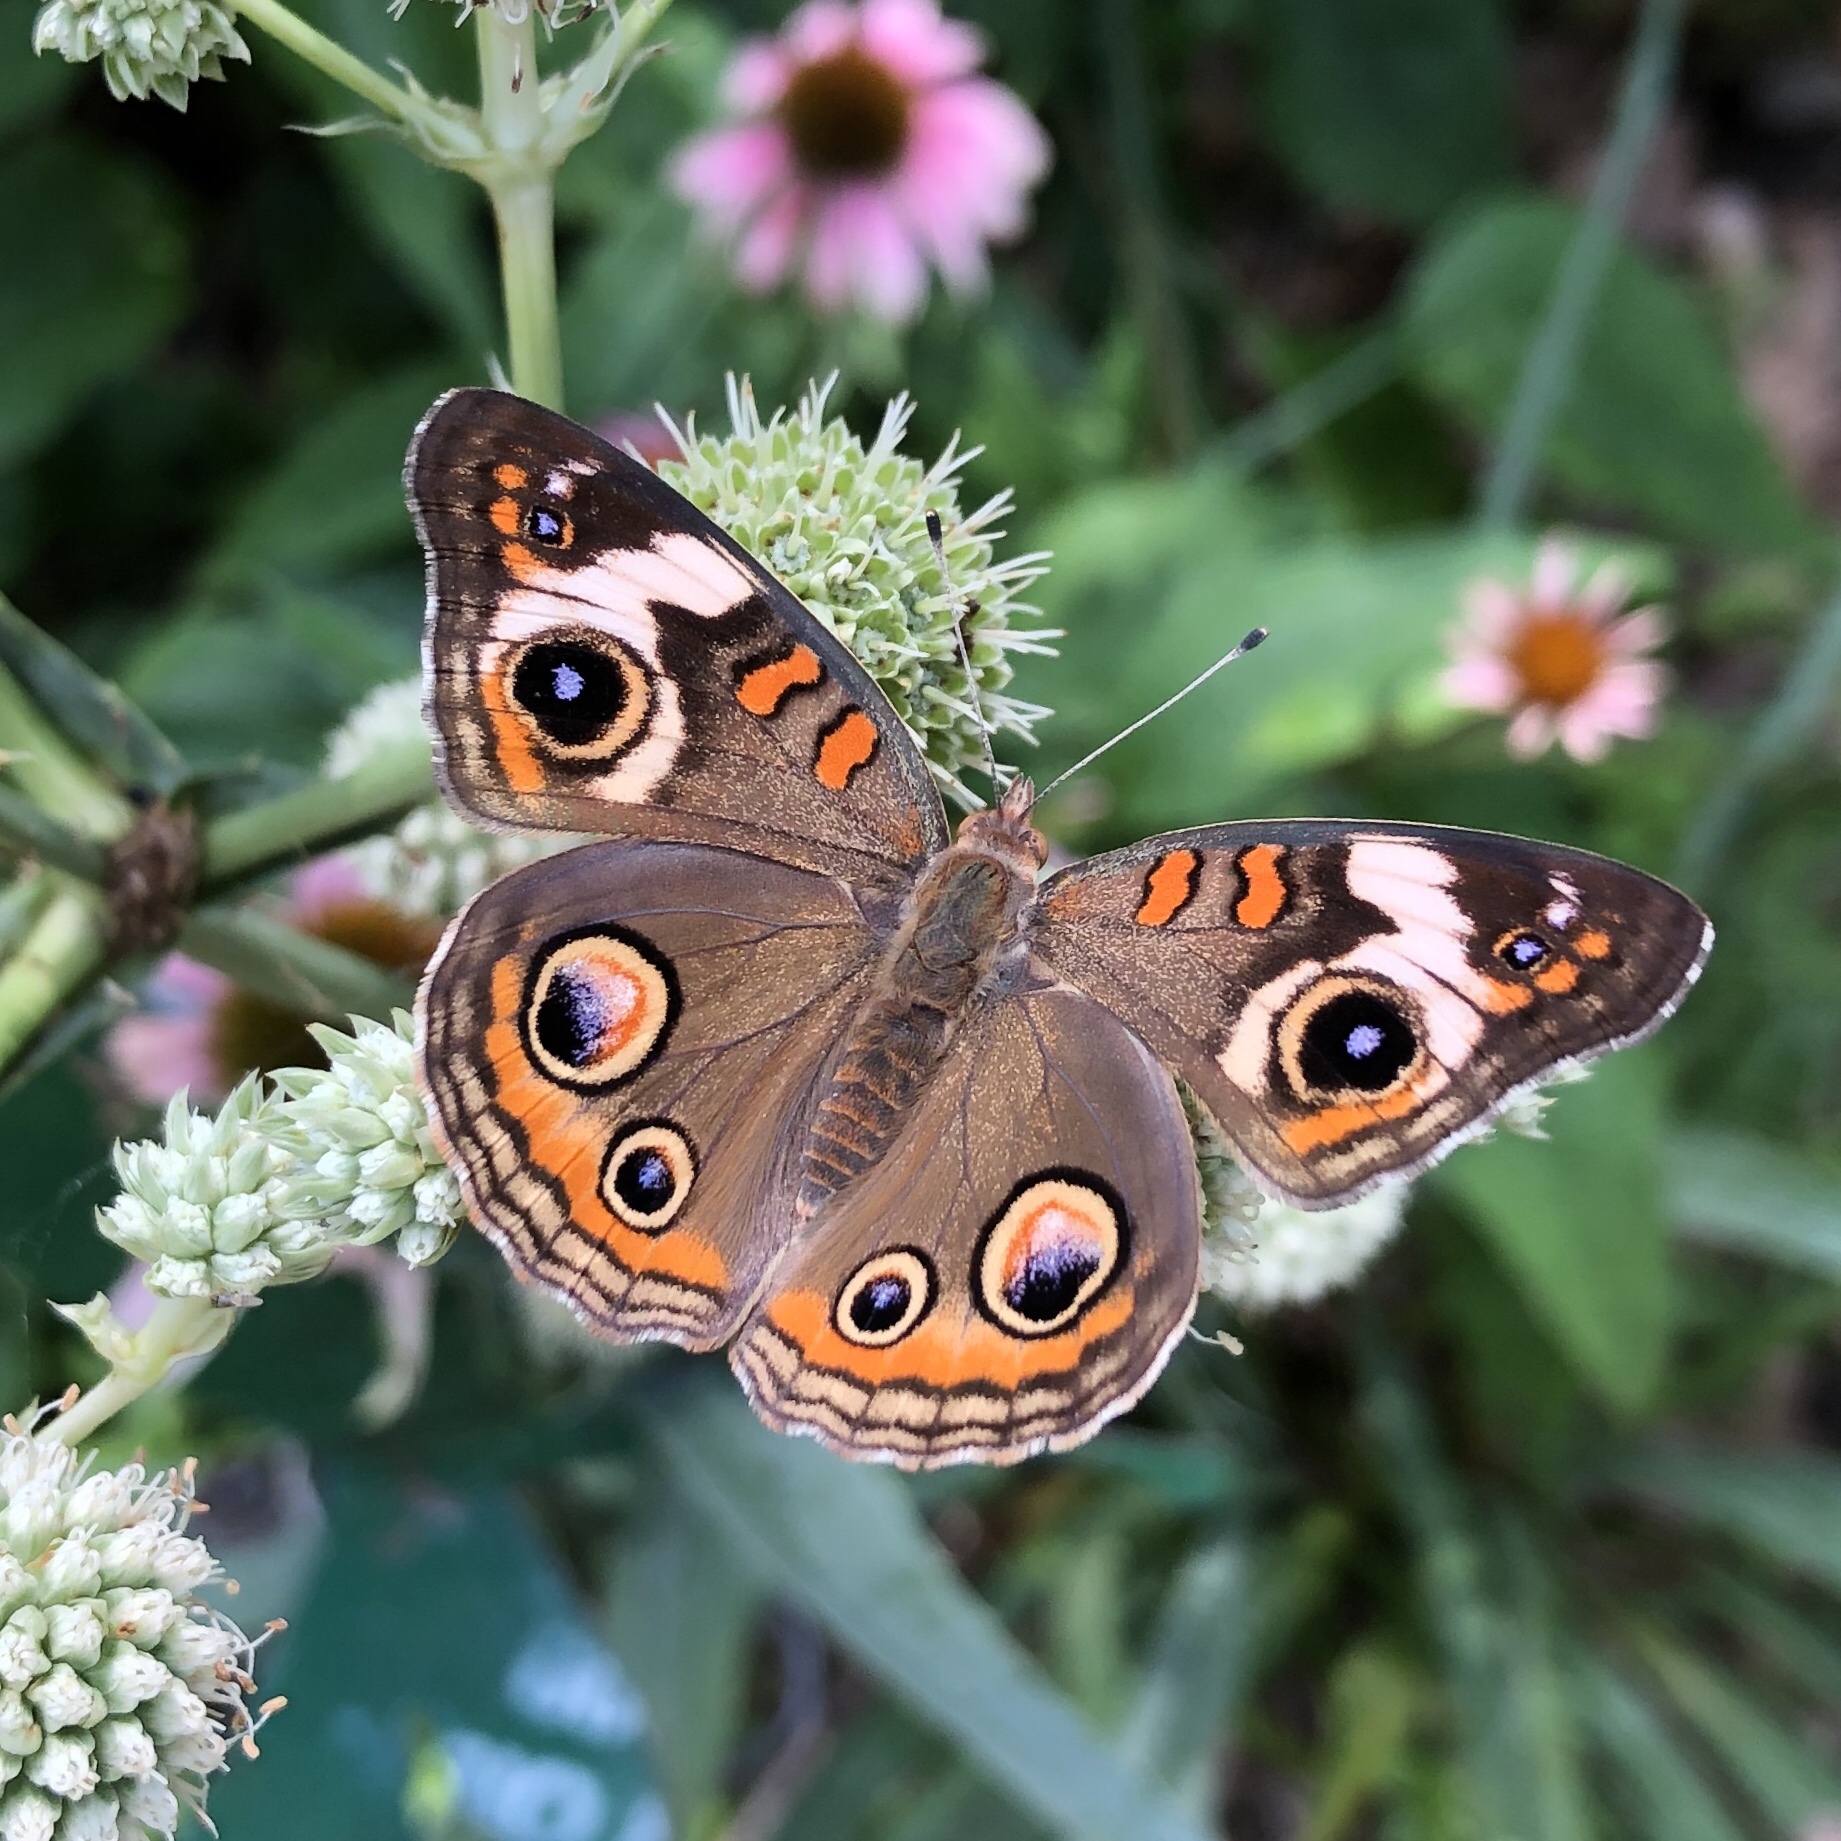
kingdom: Animalia
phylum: Arthropoda
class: Insecta
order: Lepidoptera
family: Nymphalidae
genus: Junonia
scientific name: Junonia coenia
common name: Common buckeye
